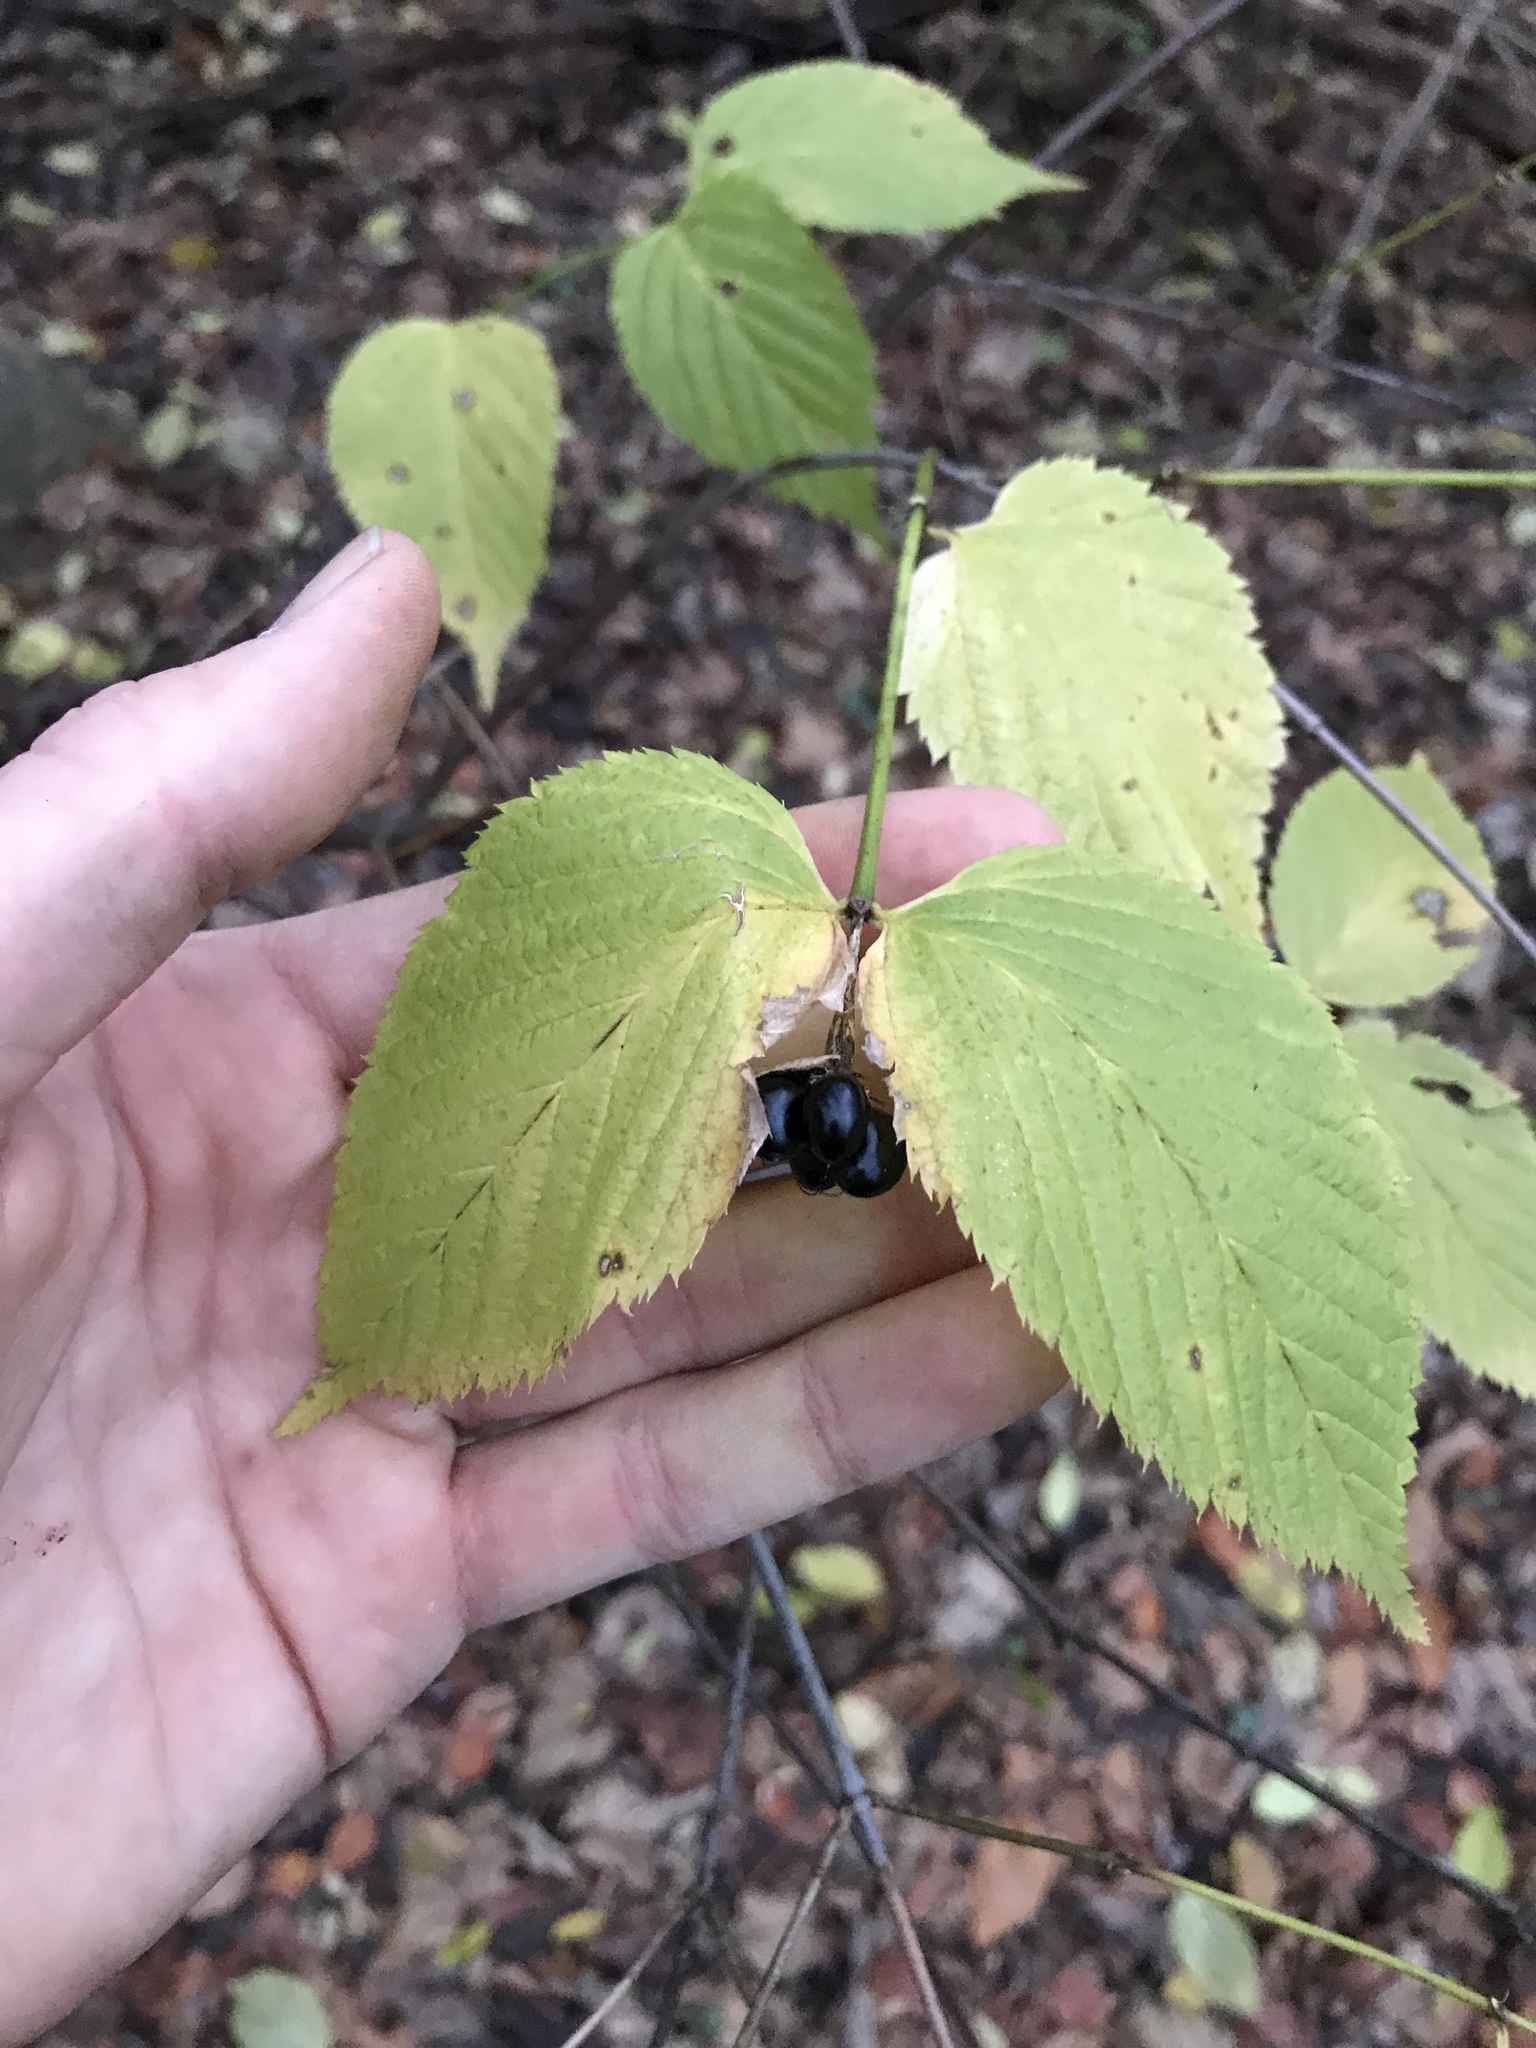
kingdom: Plantae
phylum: Tracheophyta
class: Magnoliopsida
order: Rosales
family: Rosaceae
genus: Rhodotypos
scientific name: Rhodotypos scandens
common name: Jetbead
